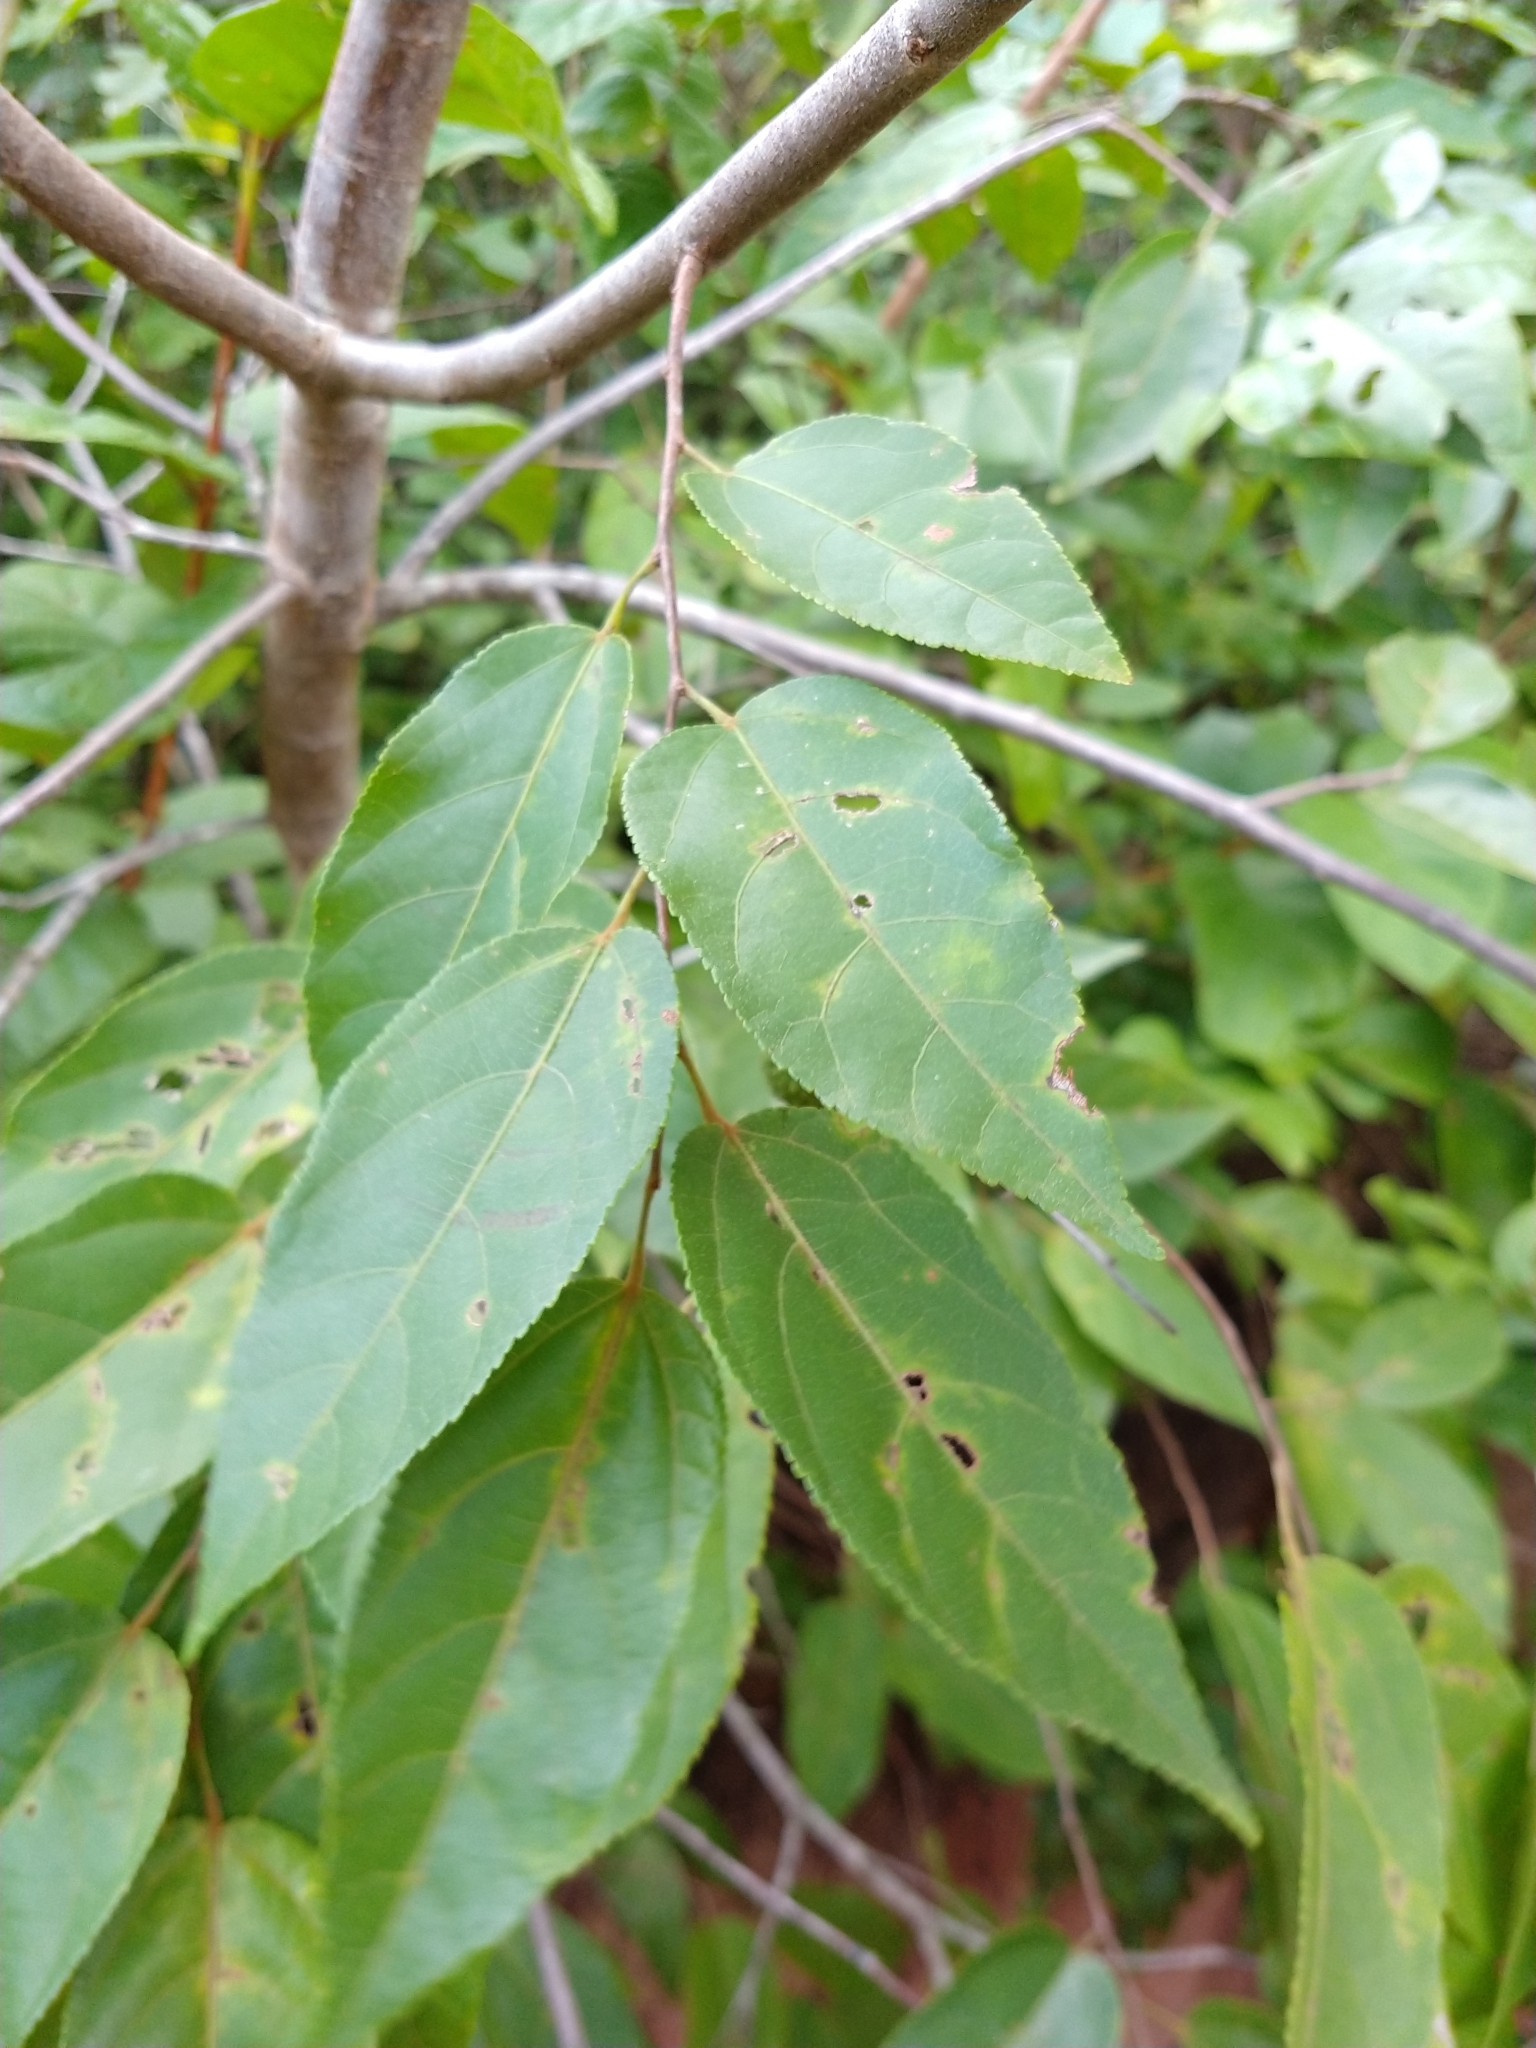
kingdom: Plantae
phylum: Tracheophyta
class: Magnoliopsida
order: Malvales
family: Malvaceae
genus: Guazuma
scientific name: Guazuma ulmifolia
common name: Bastard-cedar
